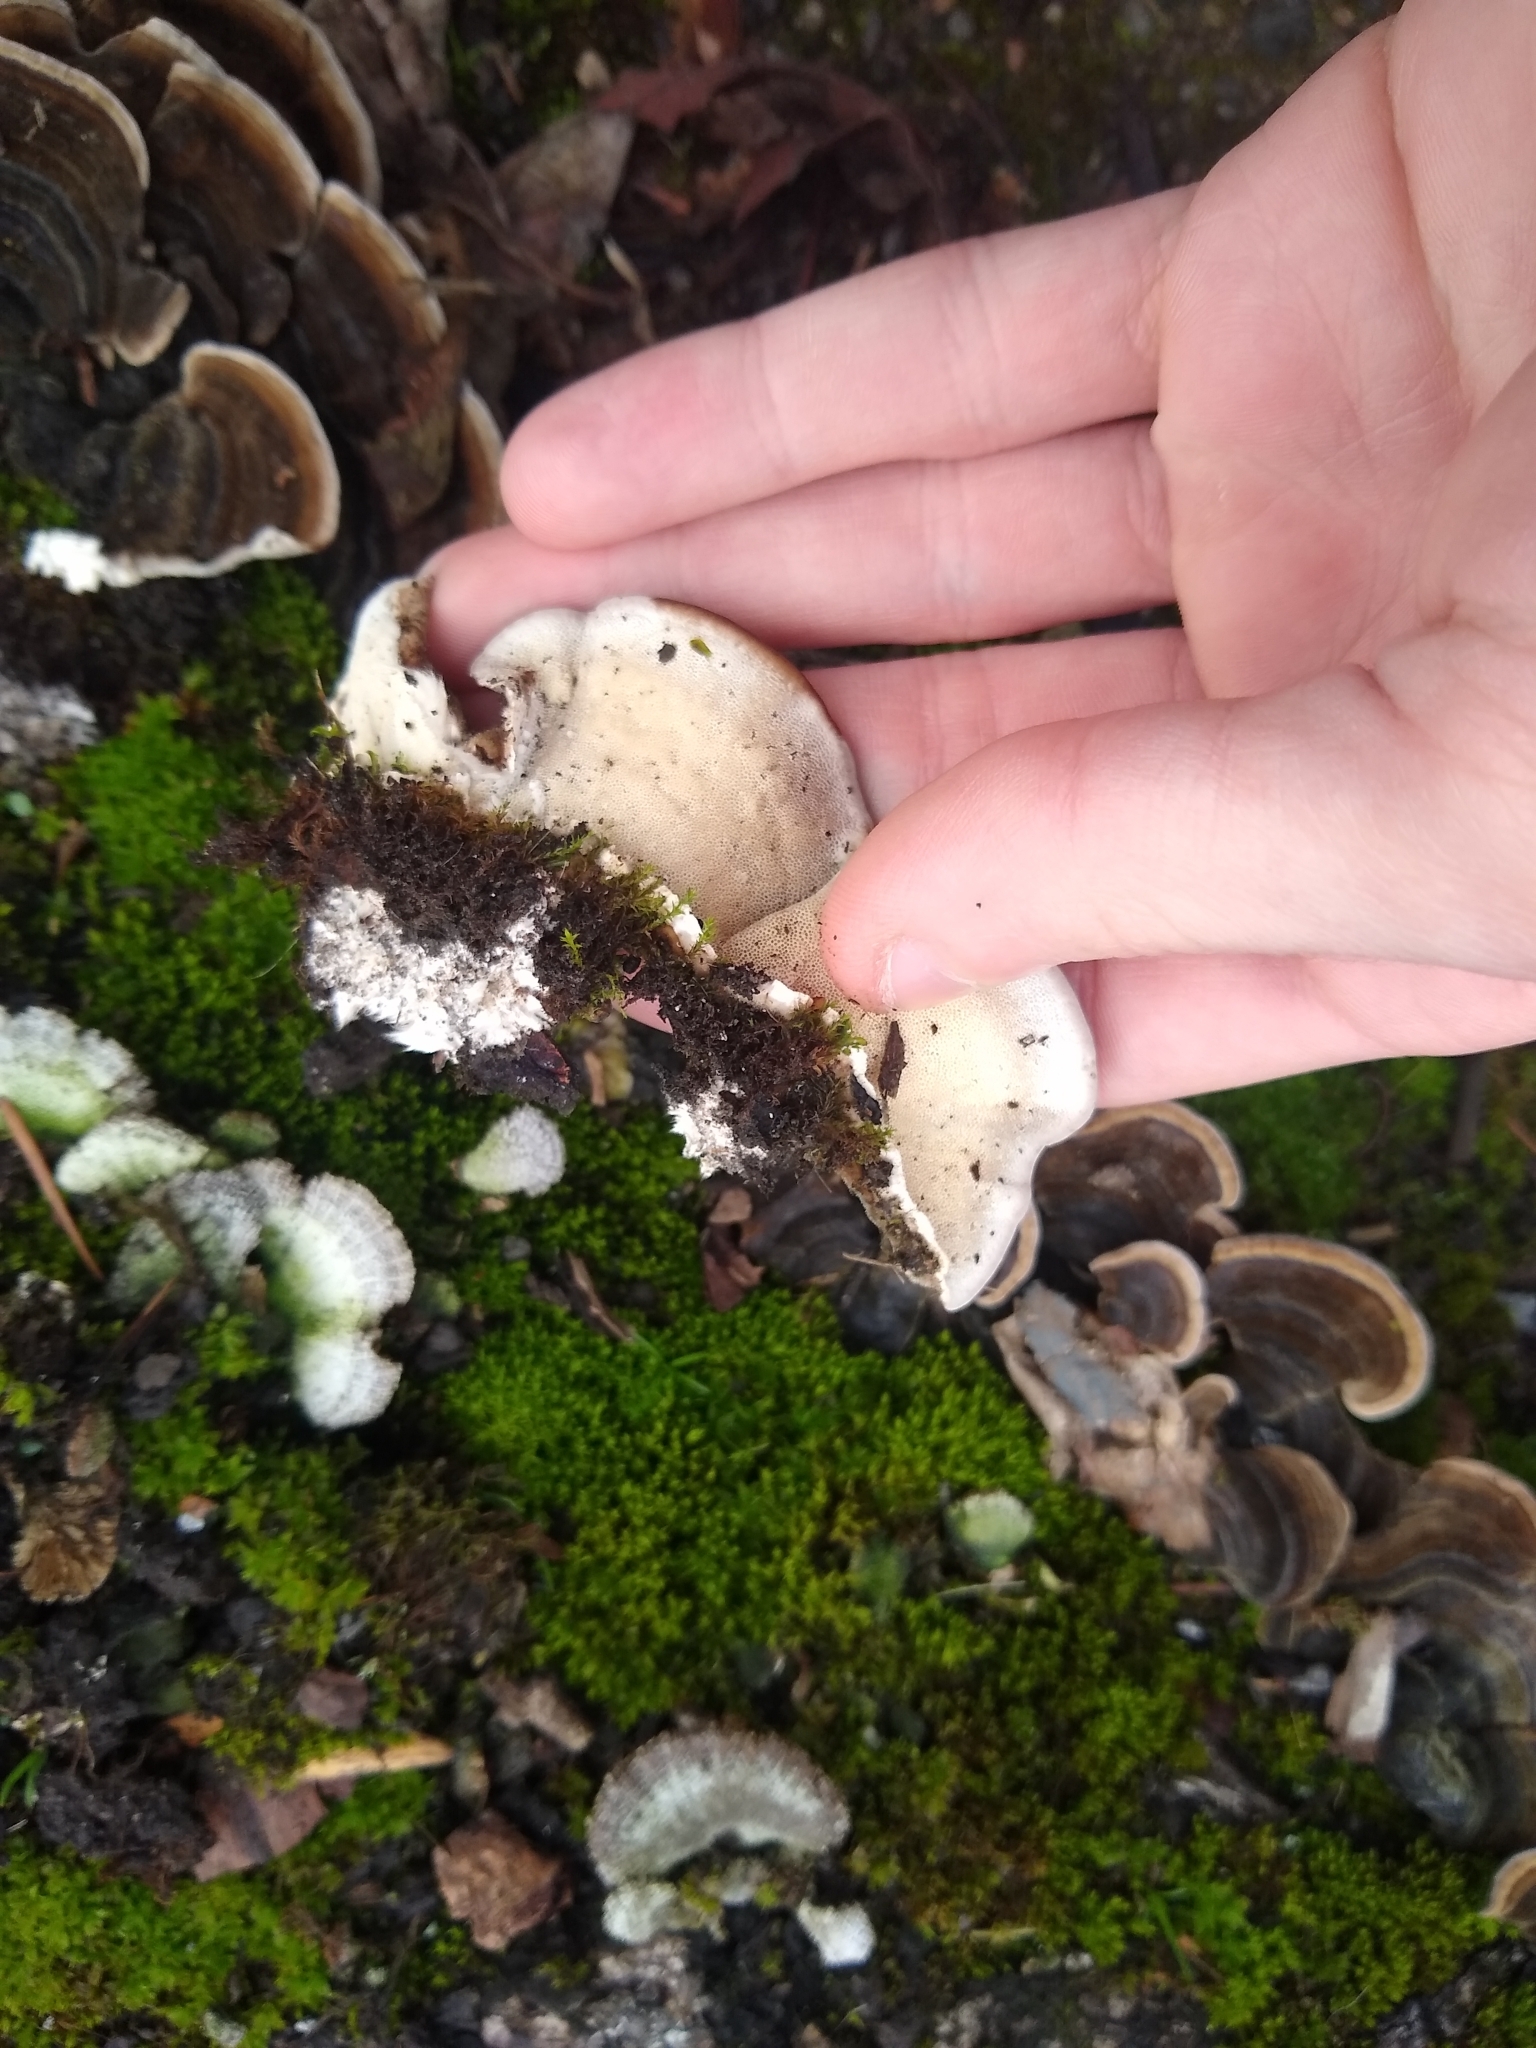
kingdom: Fungi
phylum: Basidiomycota
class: Agaricomycetes
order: Polyporales
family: Polyporaceae
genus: Trametes
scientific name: Trametes versicolor
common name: Turkeytail
